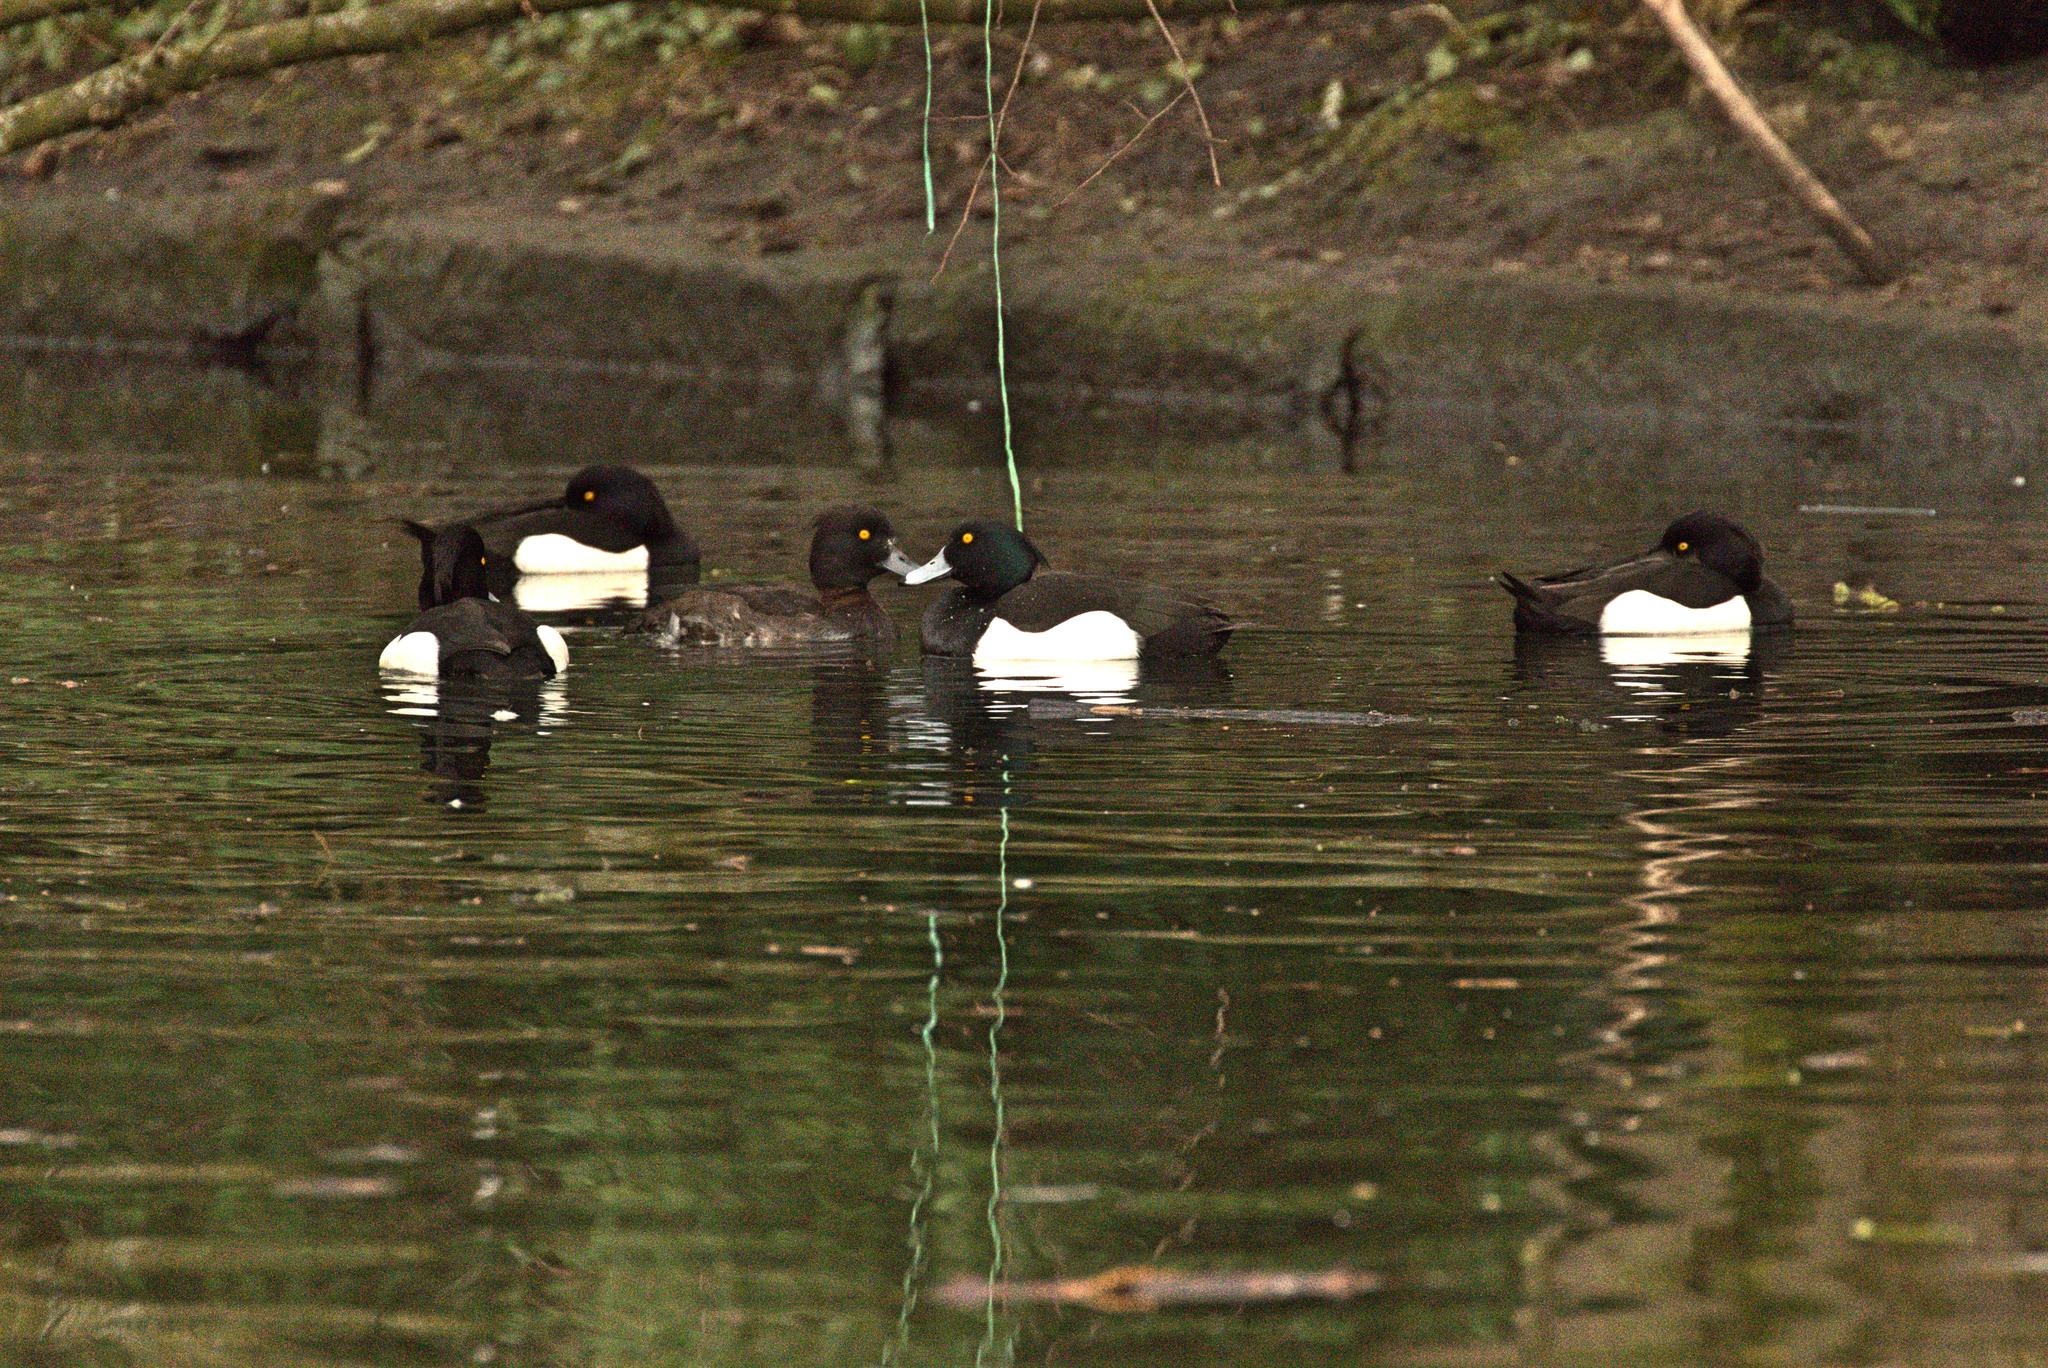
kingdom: Animalia
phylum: Chordata
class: Aves
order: Anseriformes
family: Anatidae
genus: Aythya
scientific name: Aythya fuligula
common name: Tufted duck
